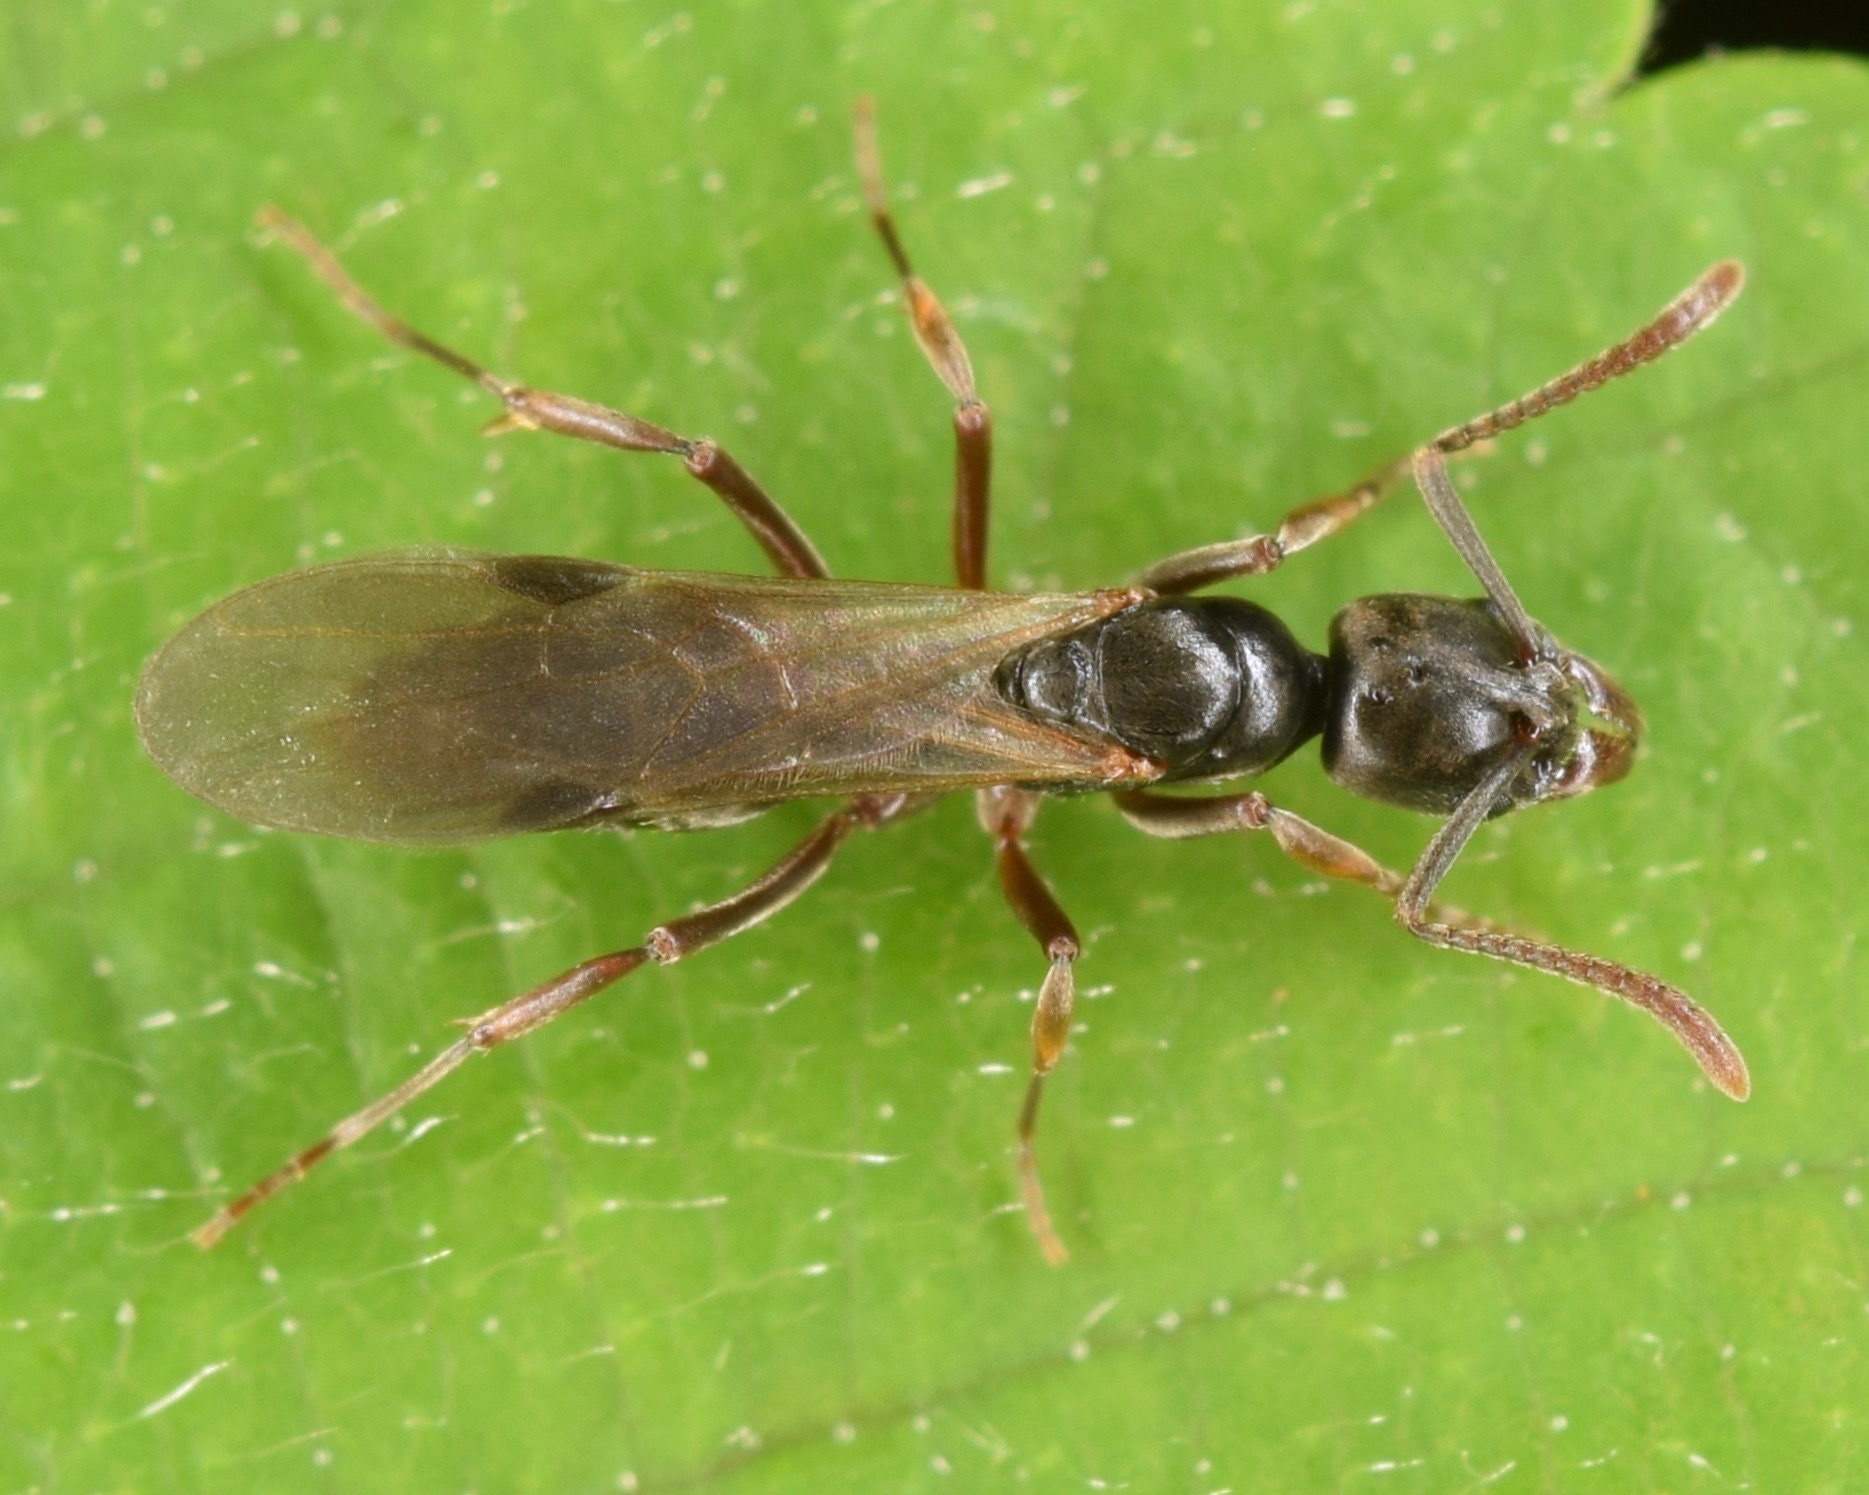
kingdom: Animalia
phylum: Arthropoda
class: Insecta
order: Hymenoptera
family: Formicidae
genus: Pachycondyla
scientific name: Pachycondyla chinensis
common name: Asian needle ant
